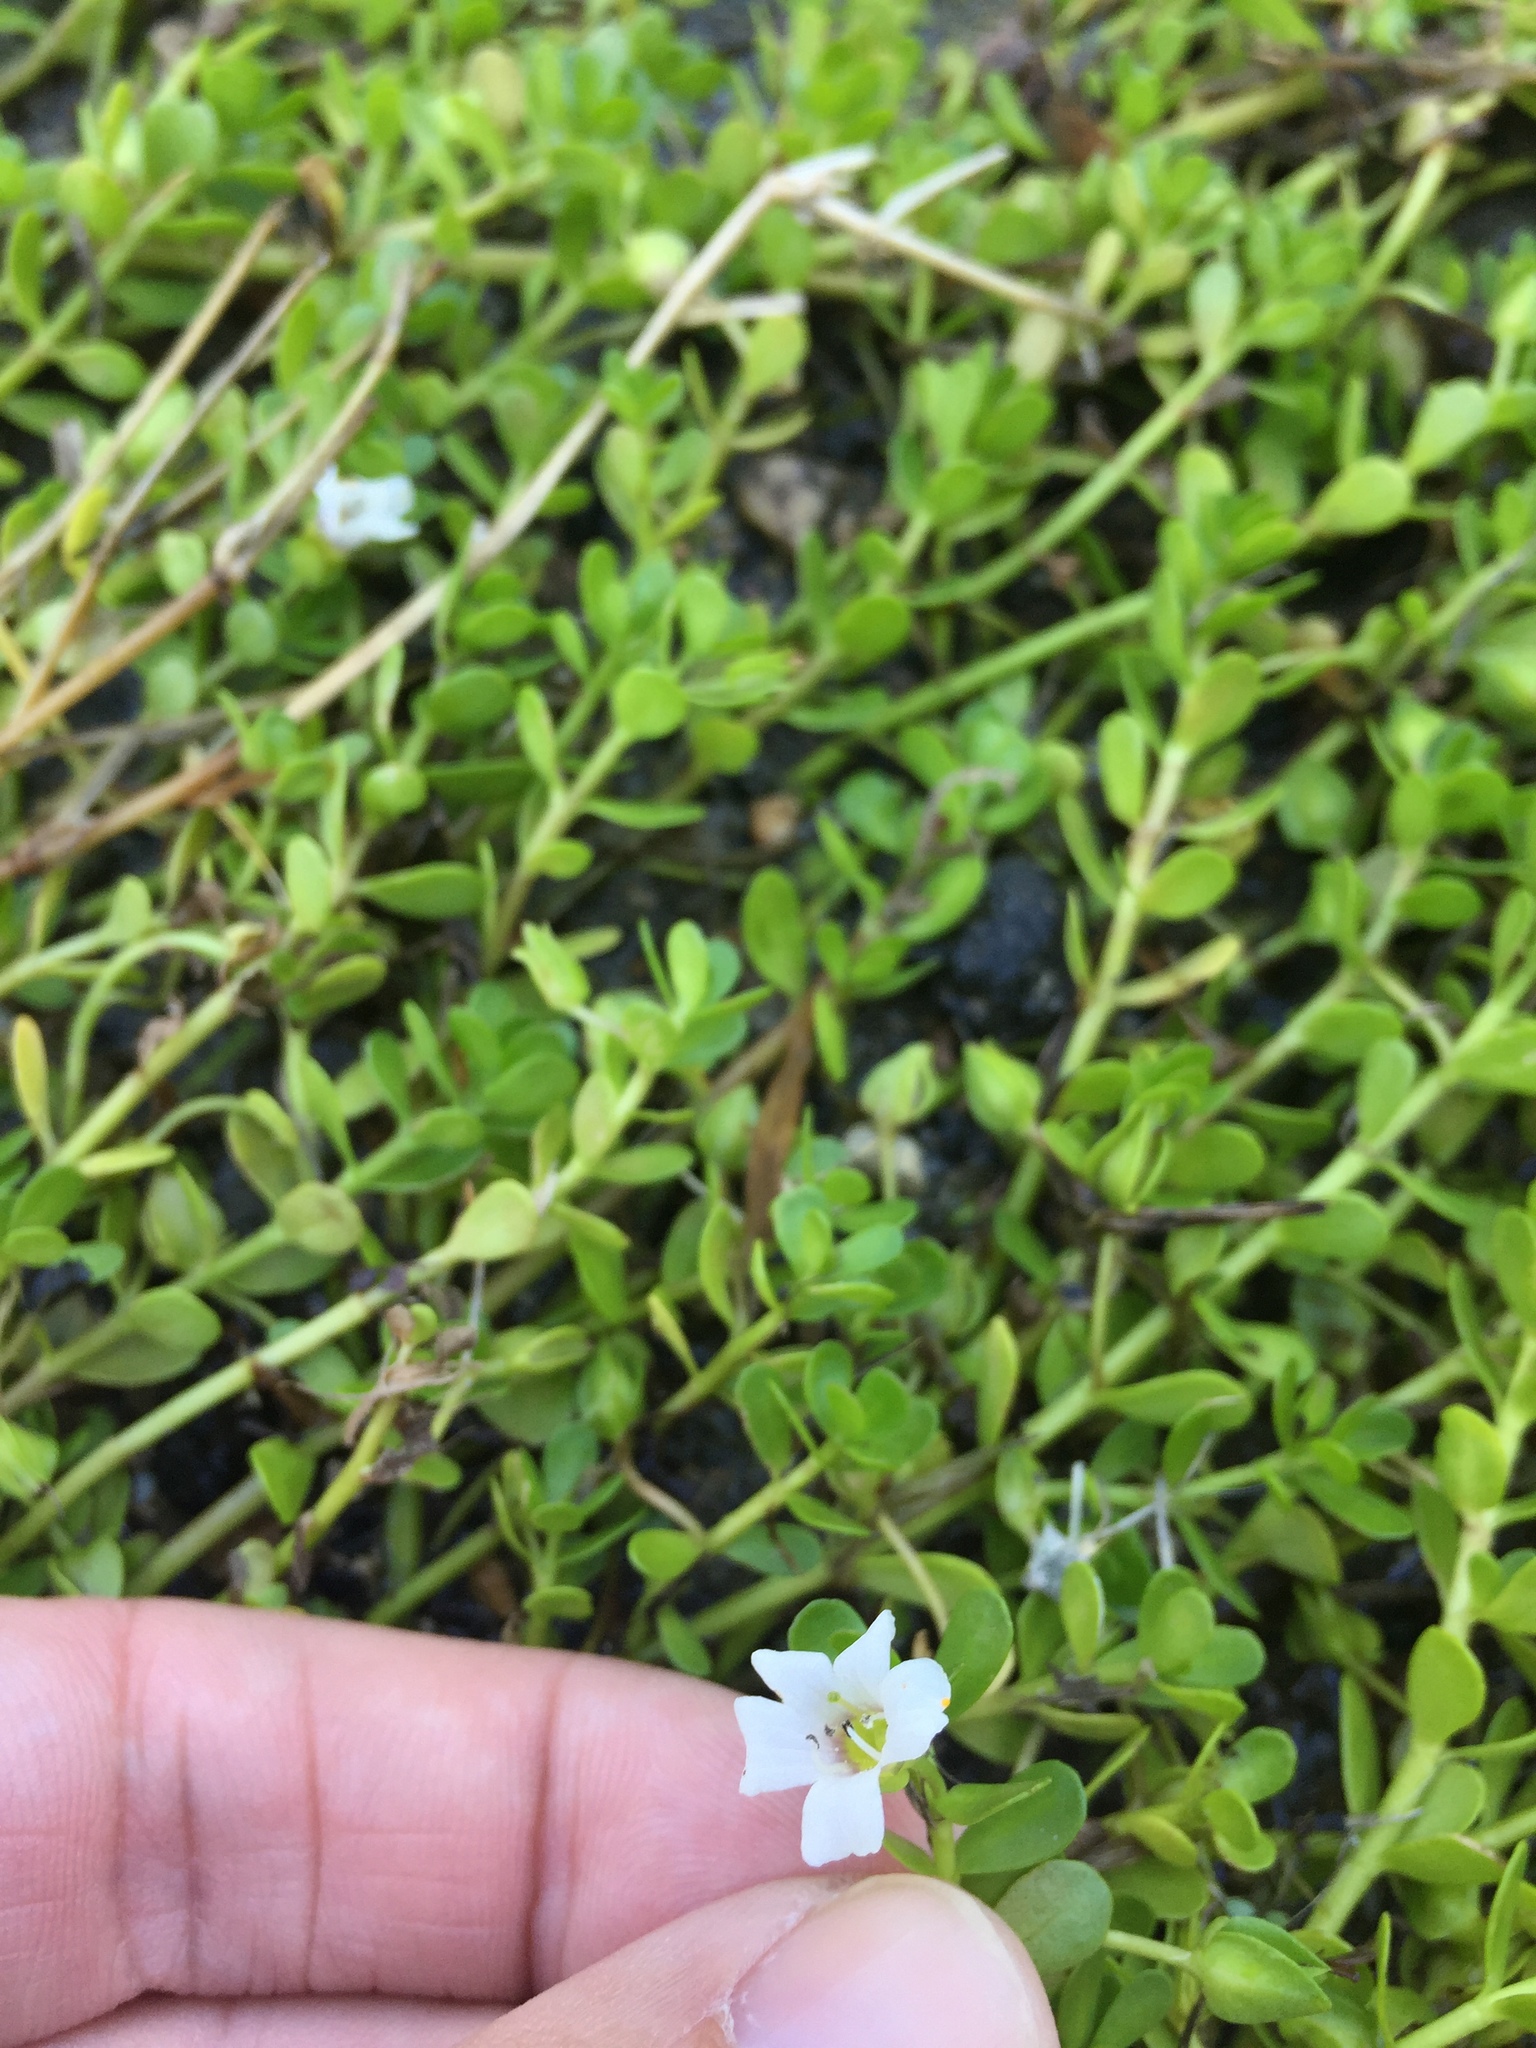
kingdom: Plantae
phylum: Tracheophyta
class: Magnoliopsida
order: Lamiales
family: Plantaginaceae
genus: Bacopa
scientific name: Bacopa monnieri
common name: Indian-pennywort
